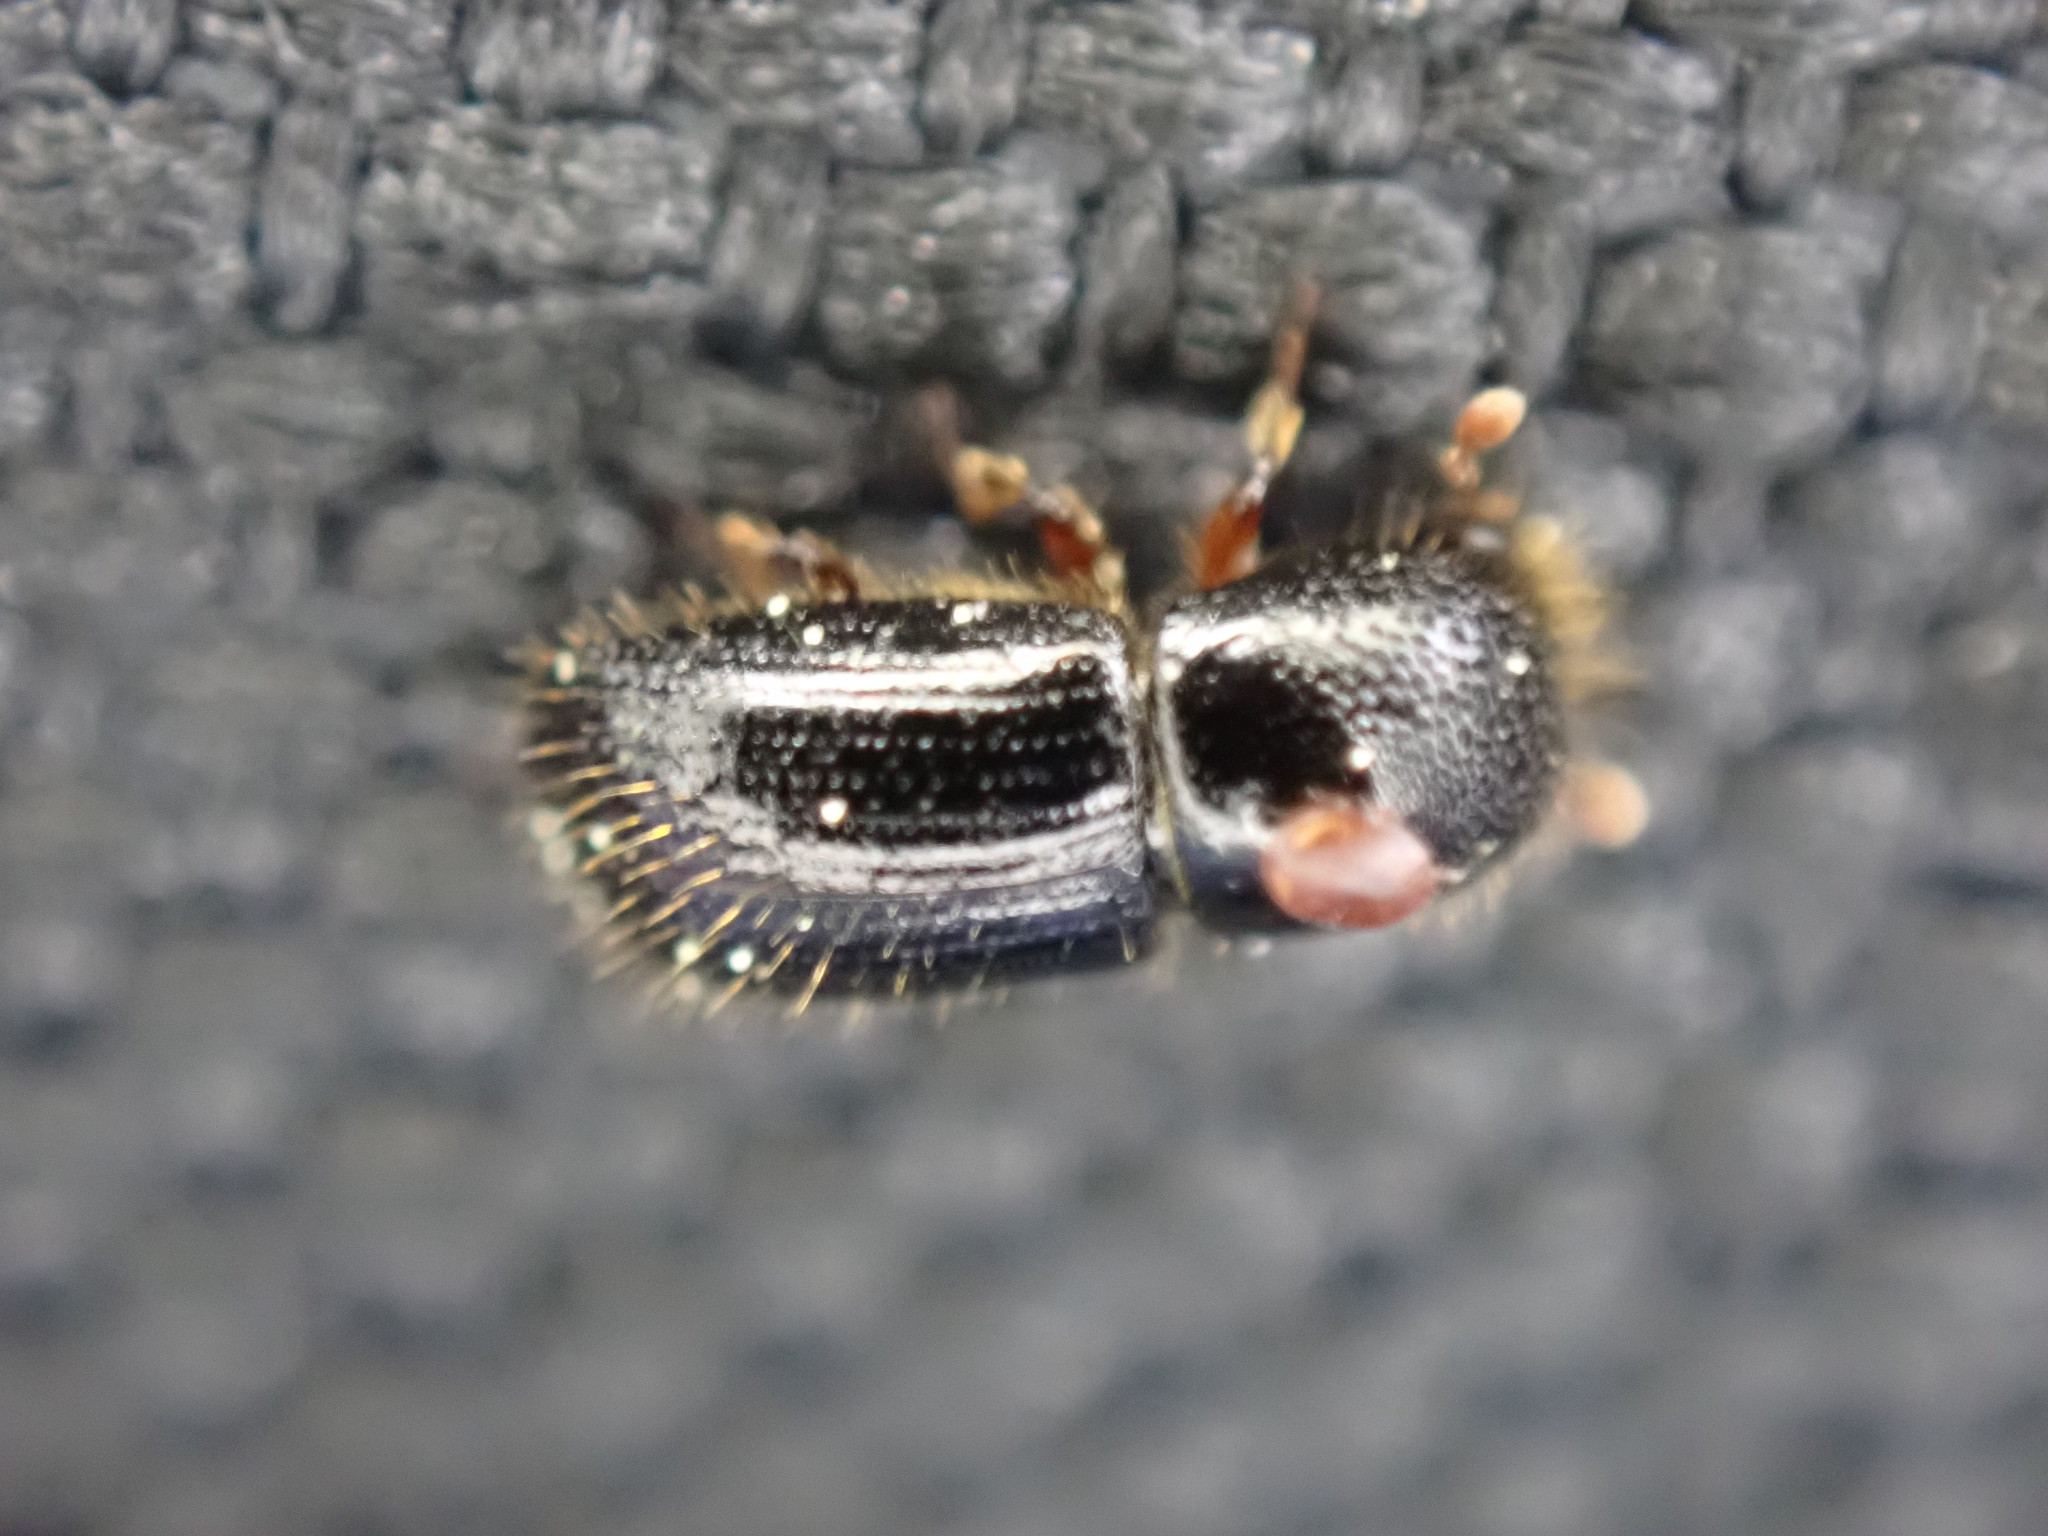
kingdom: Animalia
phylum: Arthropoda
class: Insecta
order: Coleoptera
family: Curculionidae
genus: Euwallacea
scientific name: Euwallacea validus
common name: Bark beetle
